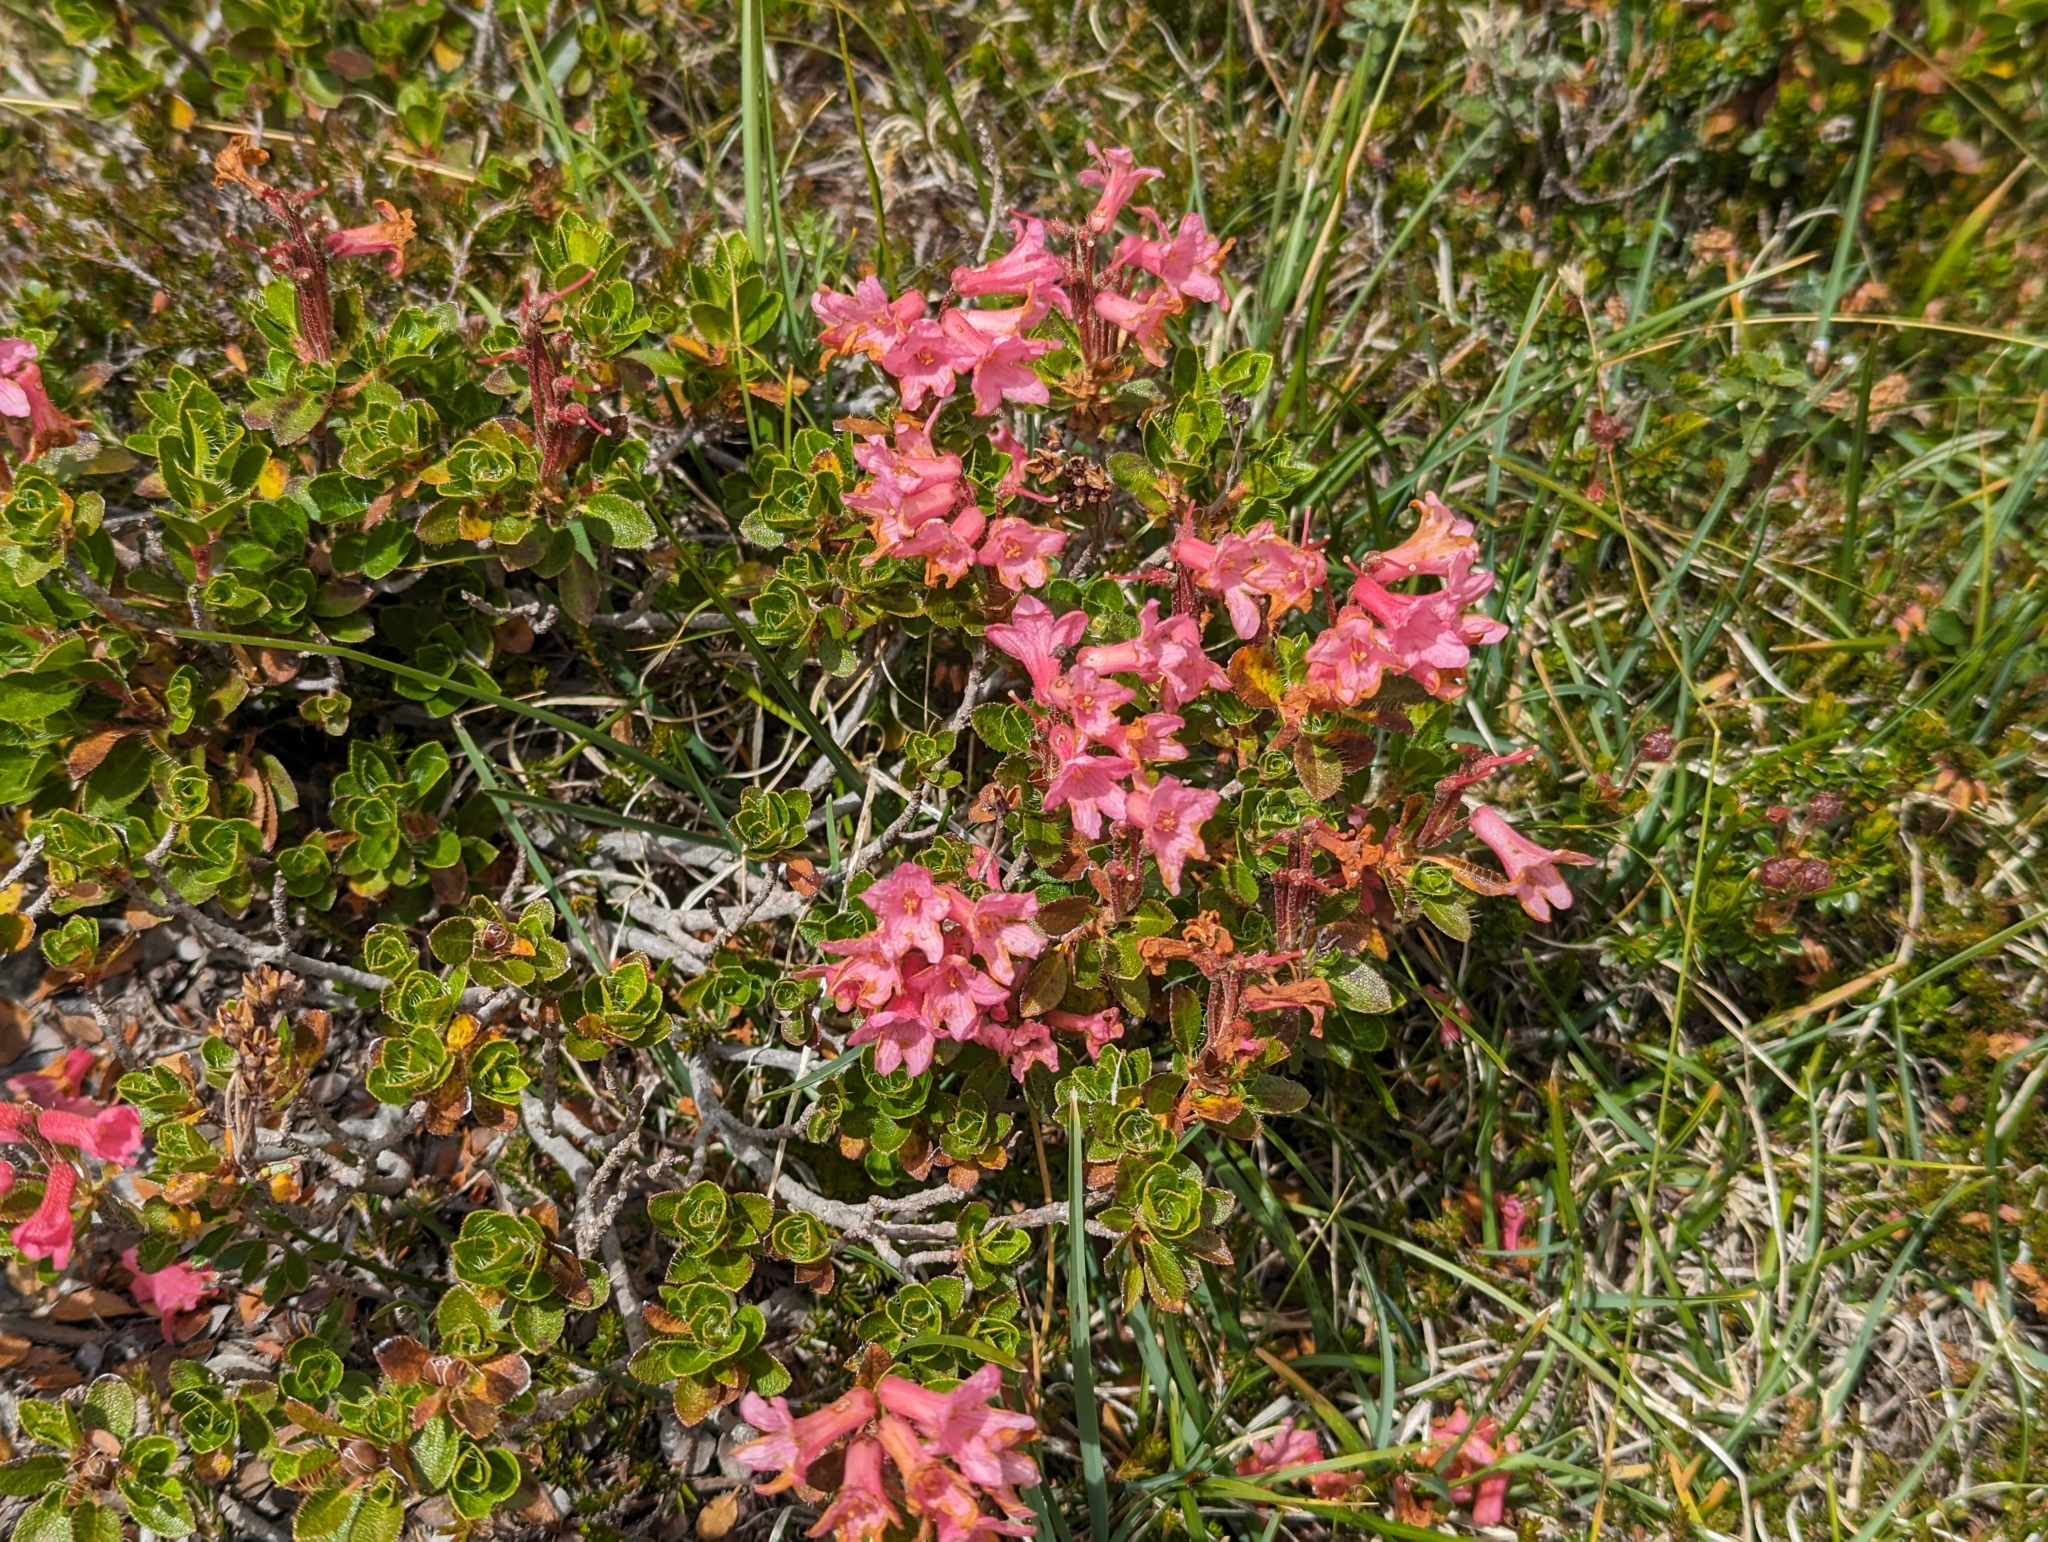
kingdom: Plantae
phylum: Tracheophyta
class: Magnoliopsida
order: Ericales
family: Ericaceae
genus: Rhododendron
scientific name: Rhododendron hirsutum
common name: Hairy alpenrose
